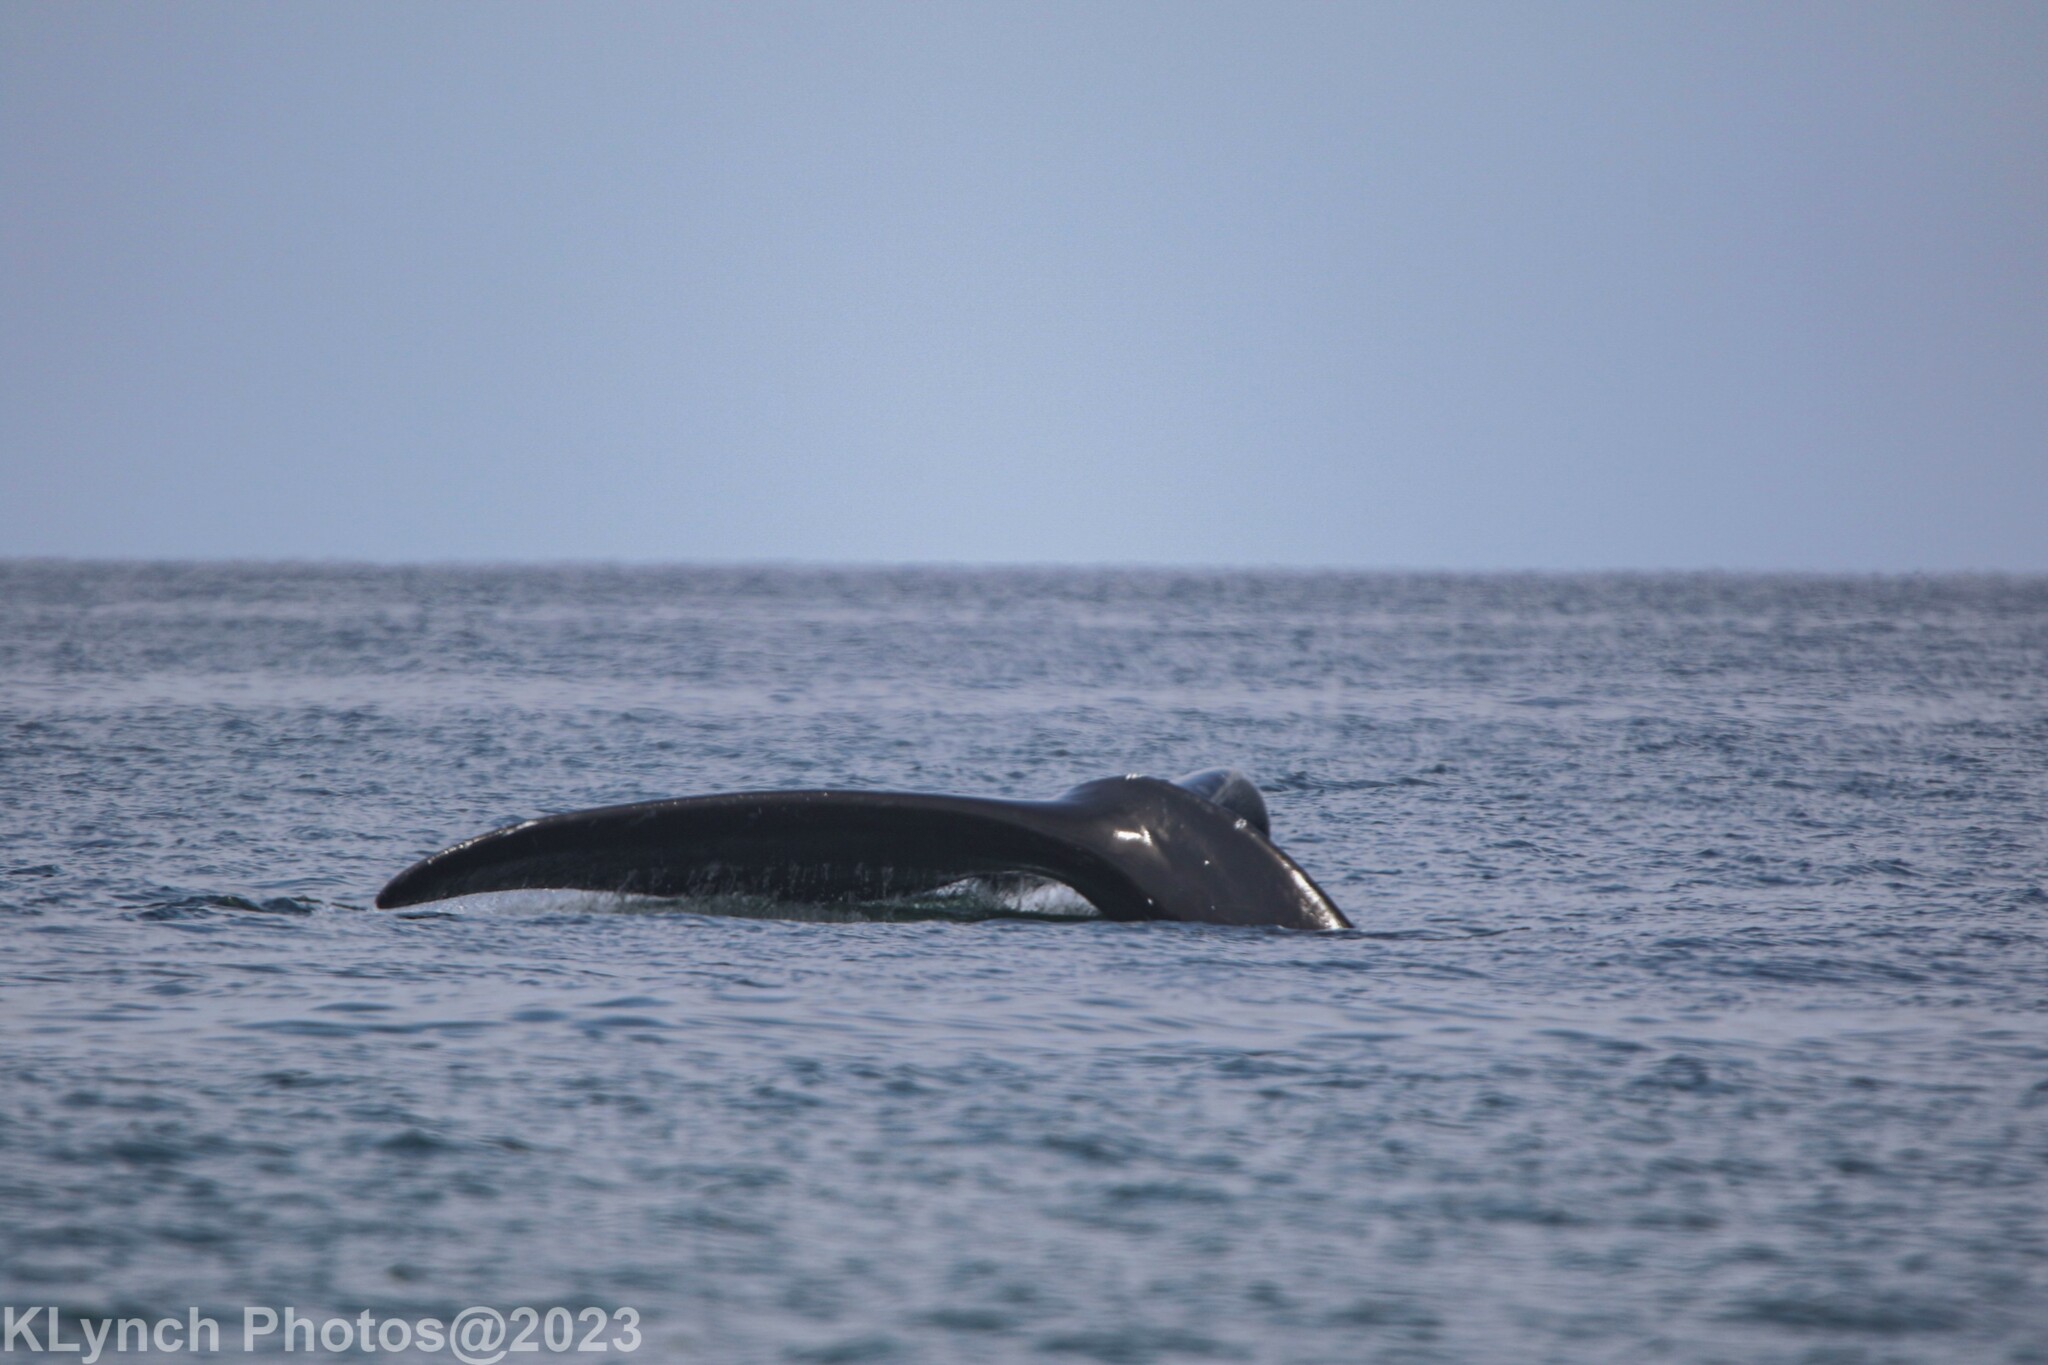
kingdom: Animalia
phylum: Chordata
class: Mammalia
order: Cetacea
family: Balaenidae
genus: Eubalaena
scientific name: Eubalaena glacialis
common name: North atlantic right whale
